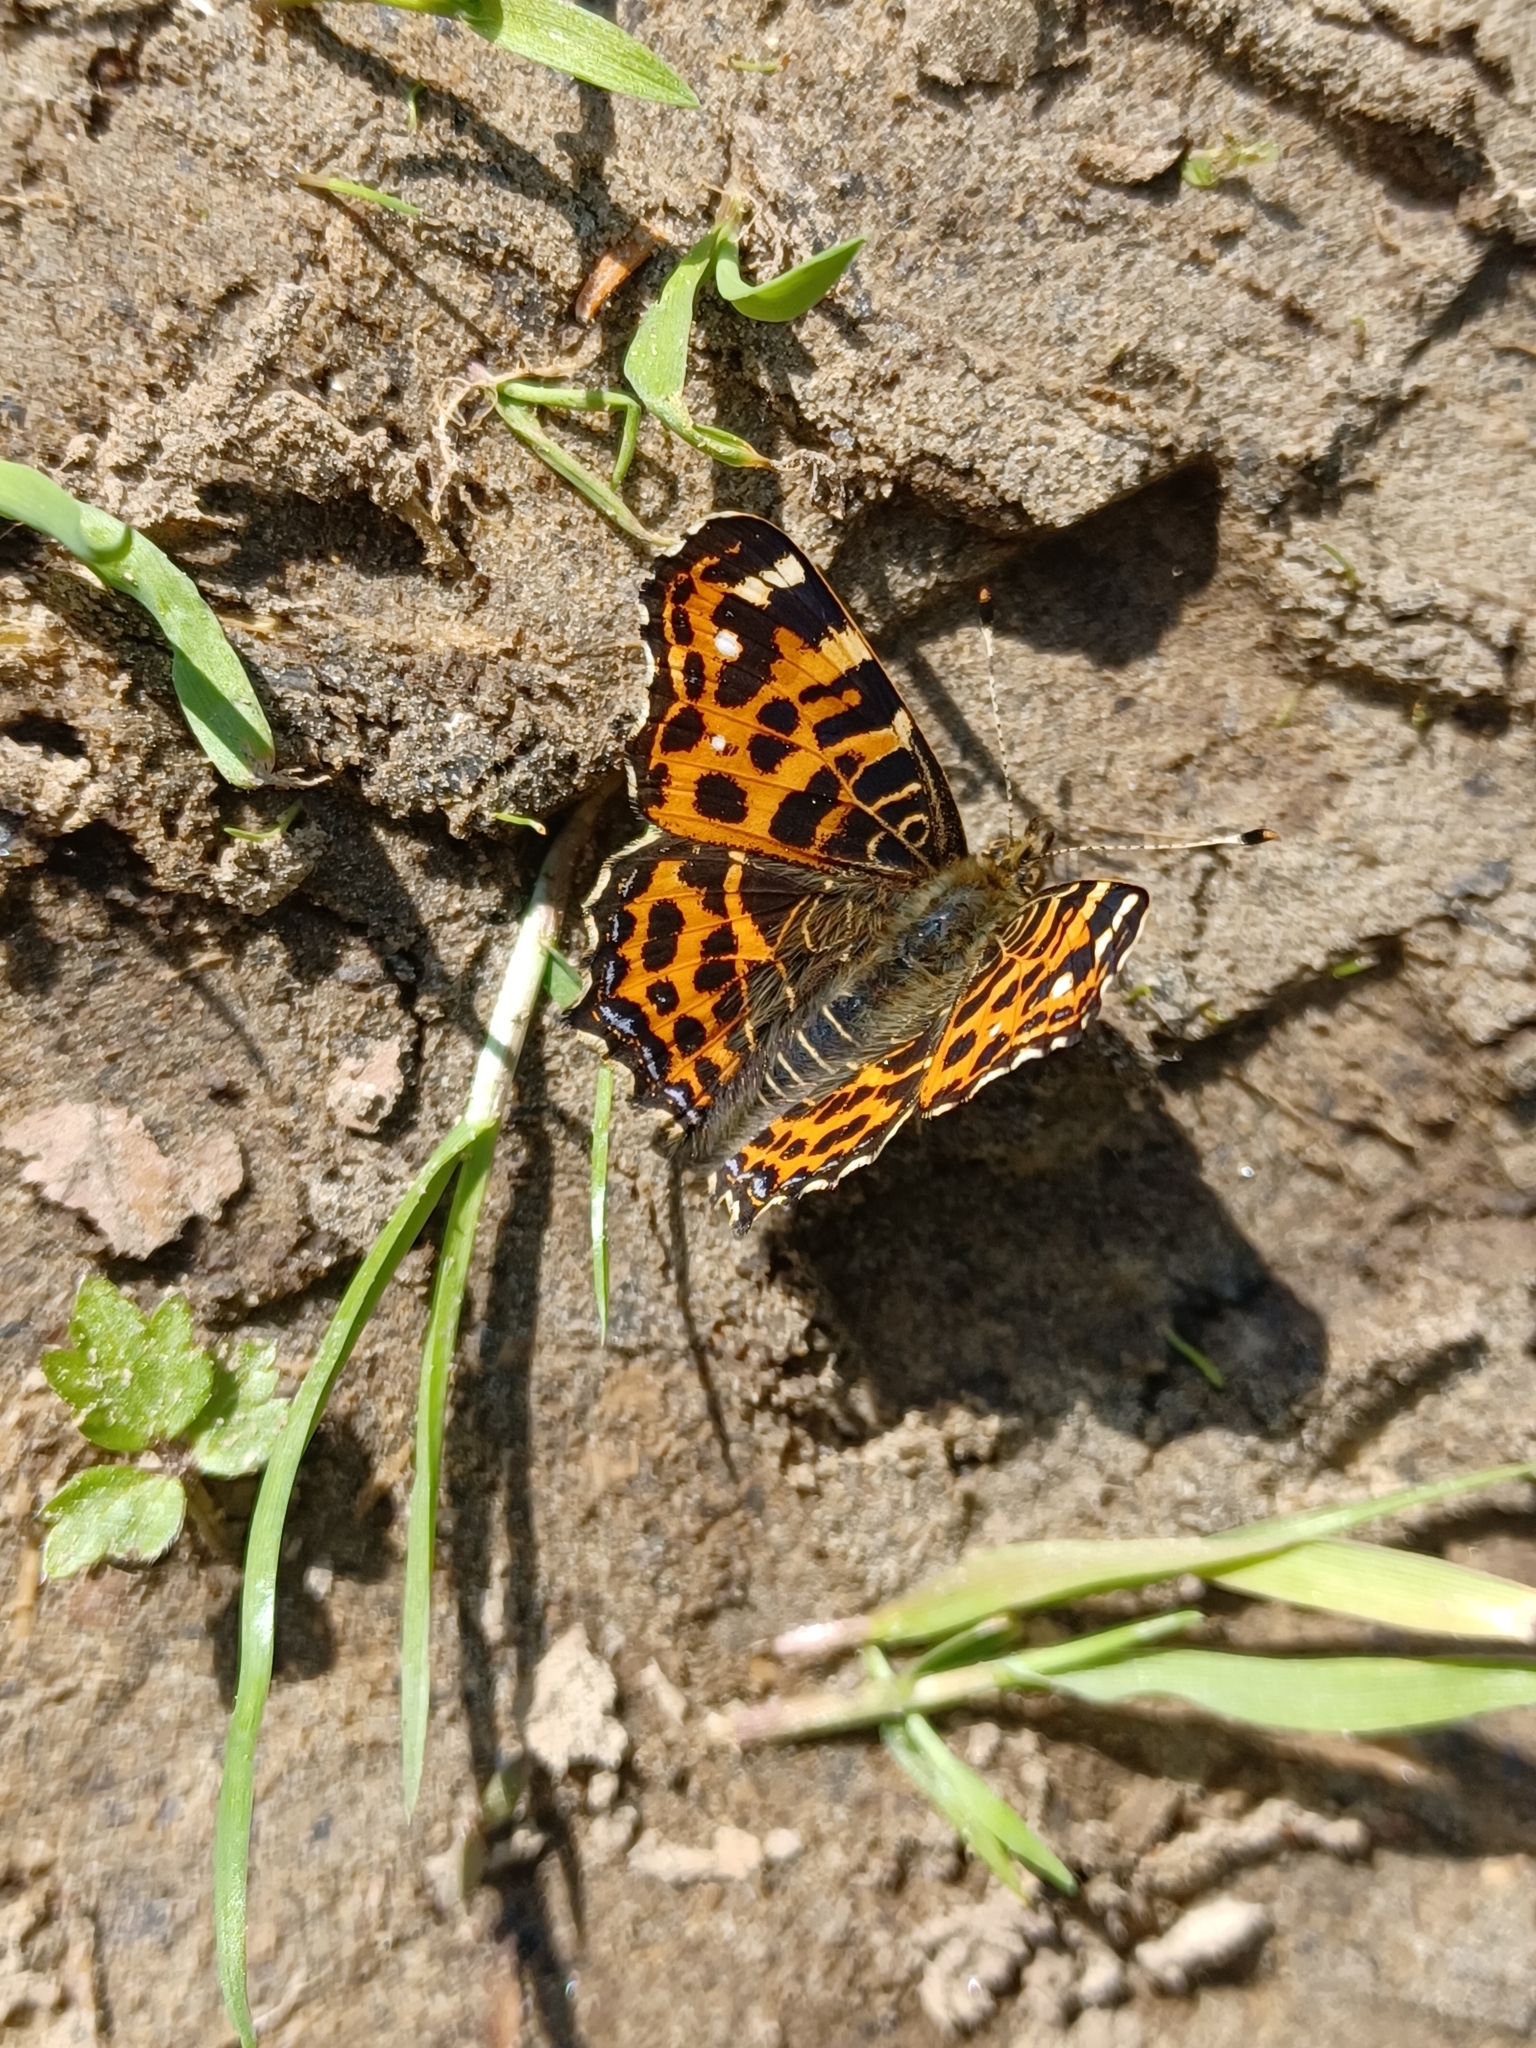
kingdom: Animalia
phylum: Arthropoda
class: Insecta
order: Lepidoptera
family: Nymphalidae
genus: Araschnia
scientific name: Araschnia levana
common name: Map butterfly
